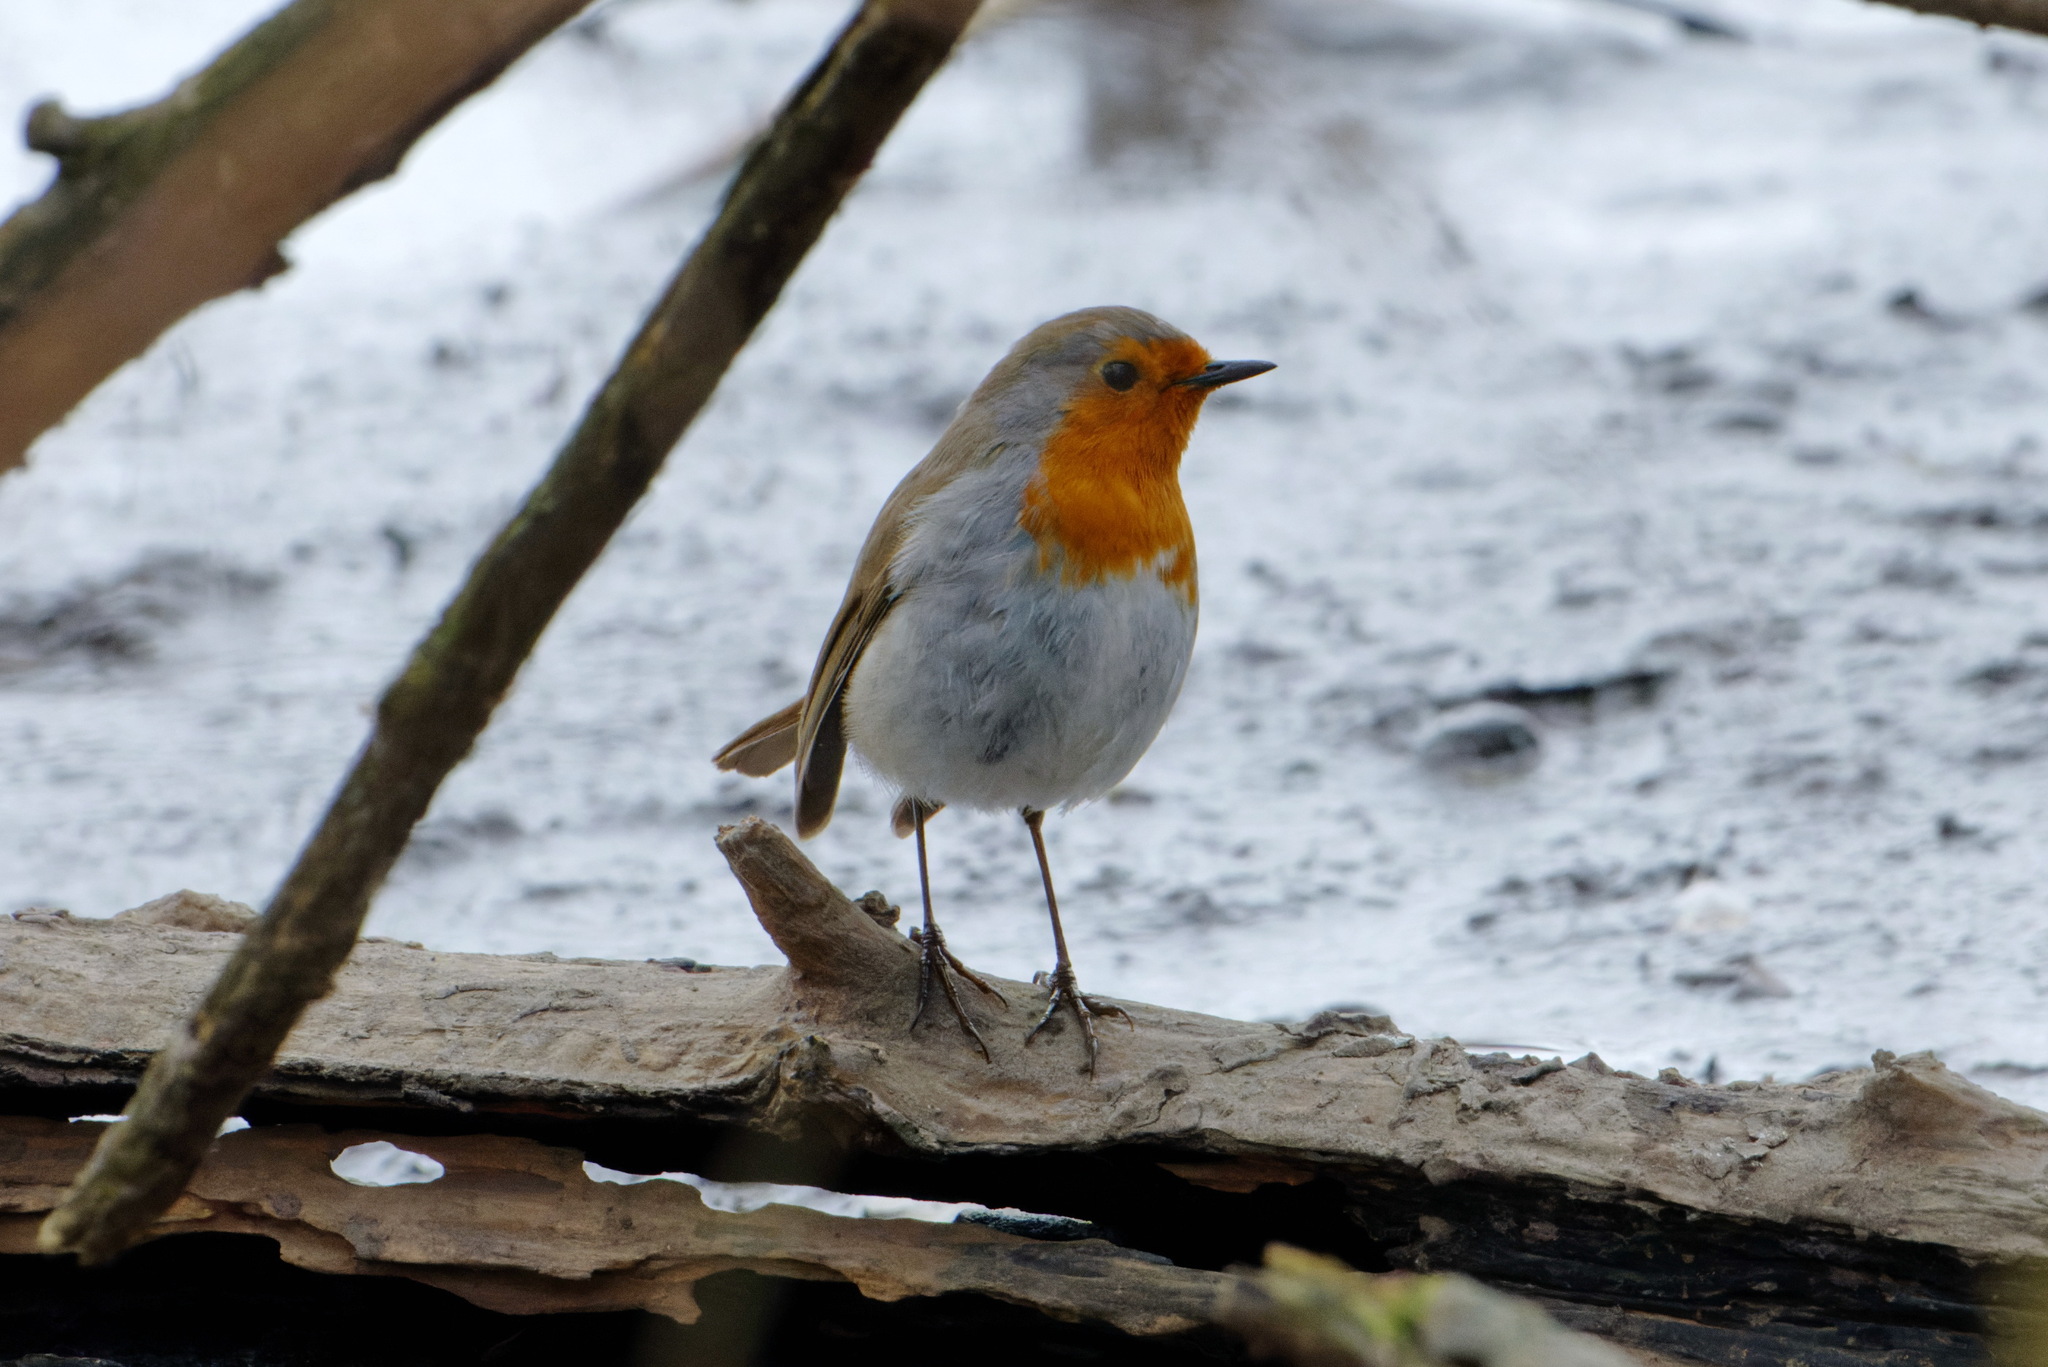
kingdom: Animalia
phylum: Chordata
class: Aves
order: Passeriformes
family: Muscicapidae
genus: Erithacus
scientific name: Erithacus rubecula
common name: European robin
